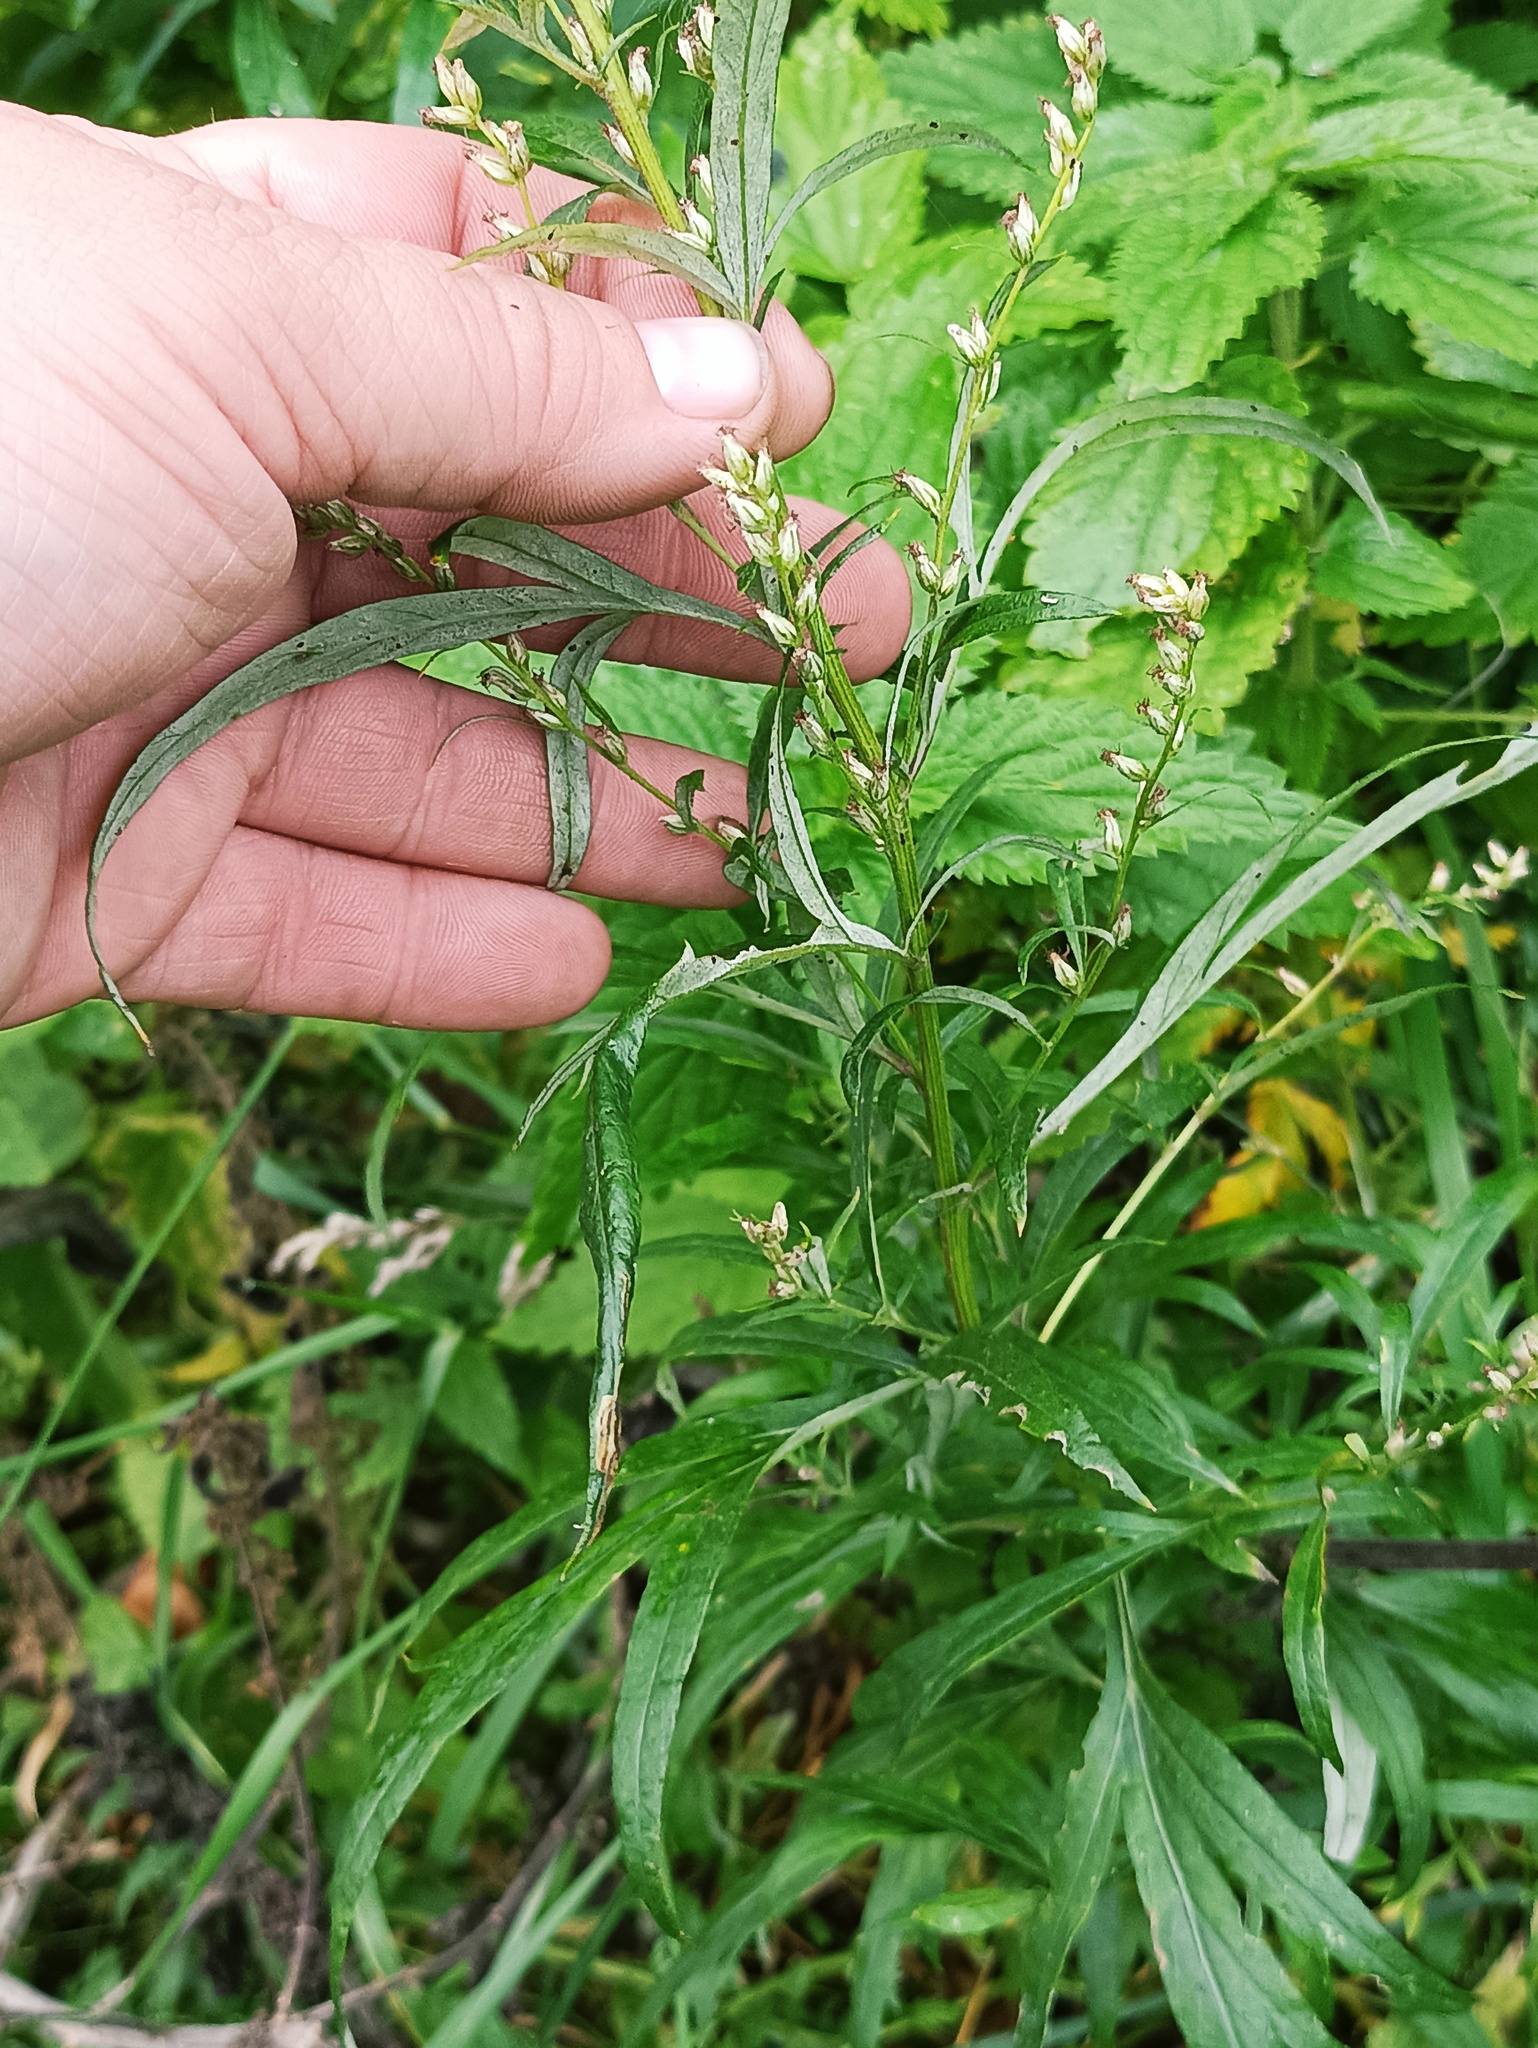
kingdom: Plantae
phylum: Tracheophyta
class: Magnoliopsida
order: Asterales
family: Asteraceae
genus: Artemisia
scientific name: Artemisia vulgaris
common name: Mugwort
